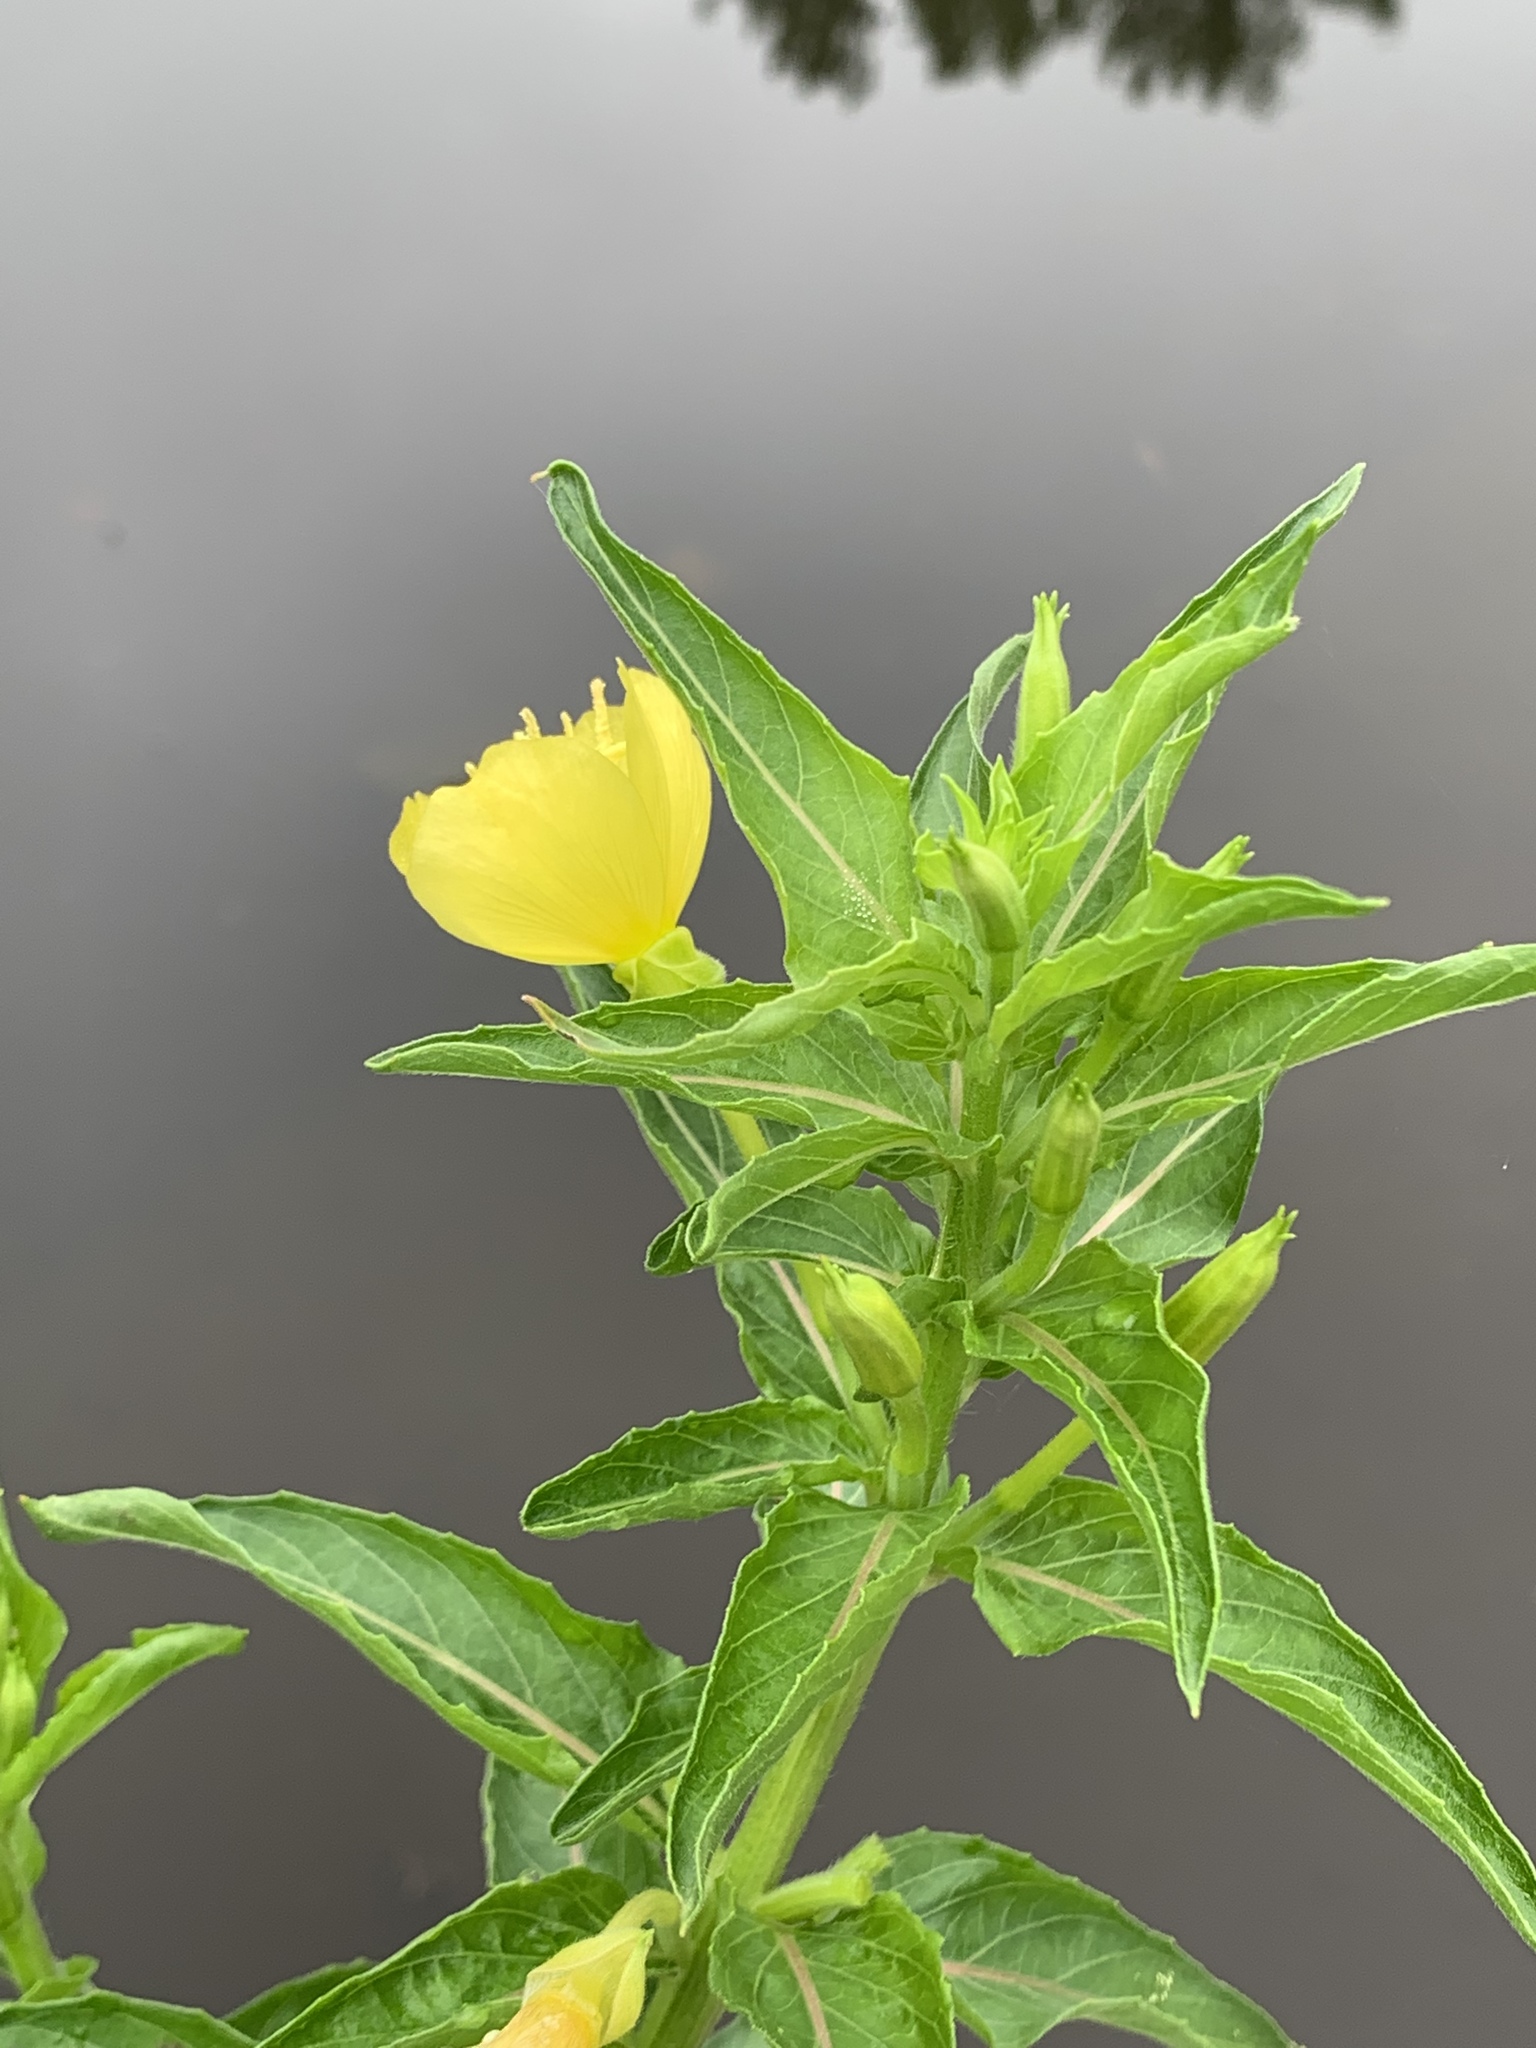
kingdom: Plantae
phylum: Tracheophyta
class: Magnoliopsida
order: Myrtales
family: Onagraceae
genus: Oenothera
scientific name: Oenothera biennis
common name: Common evening-primrose
